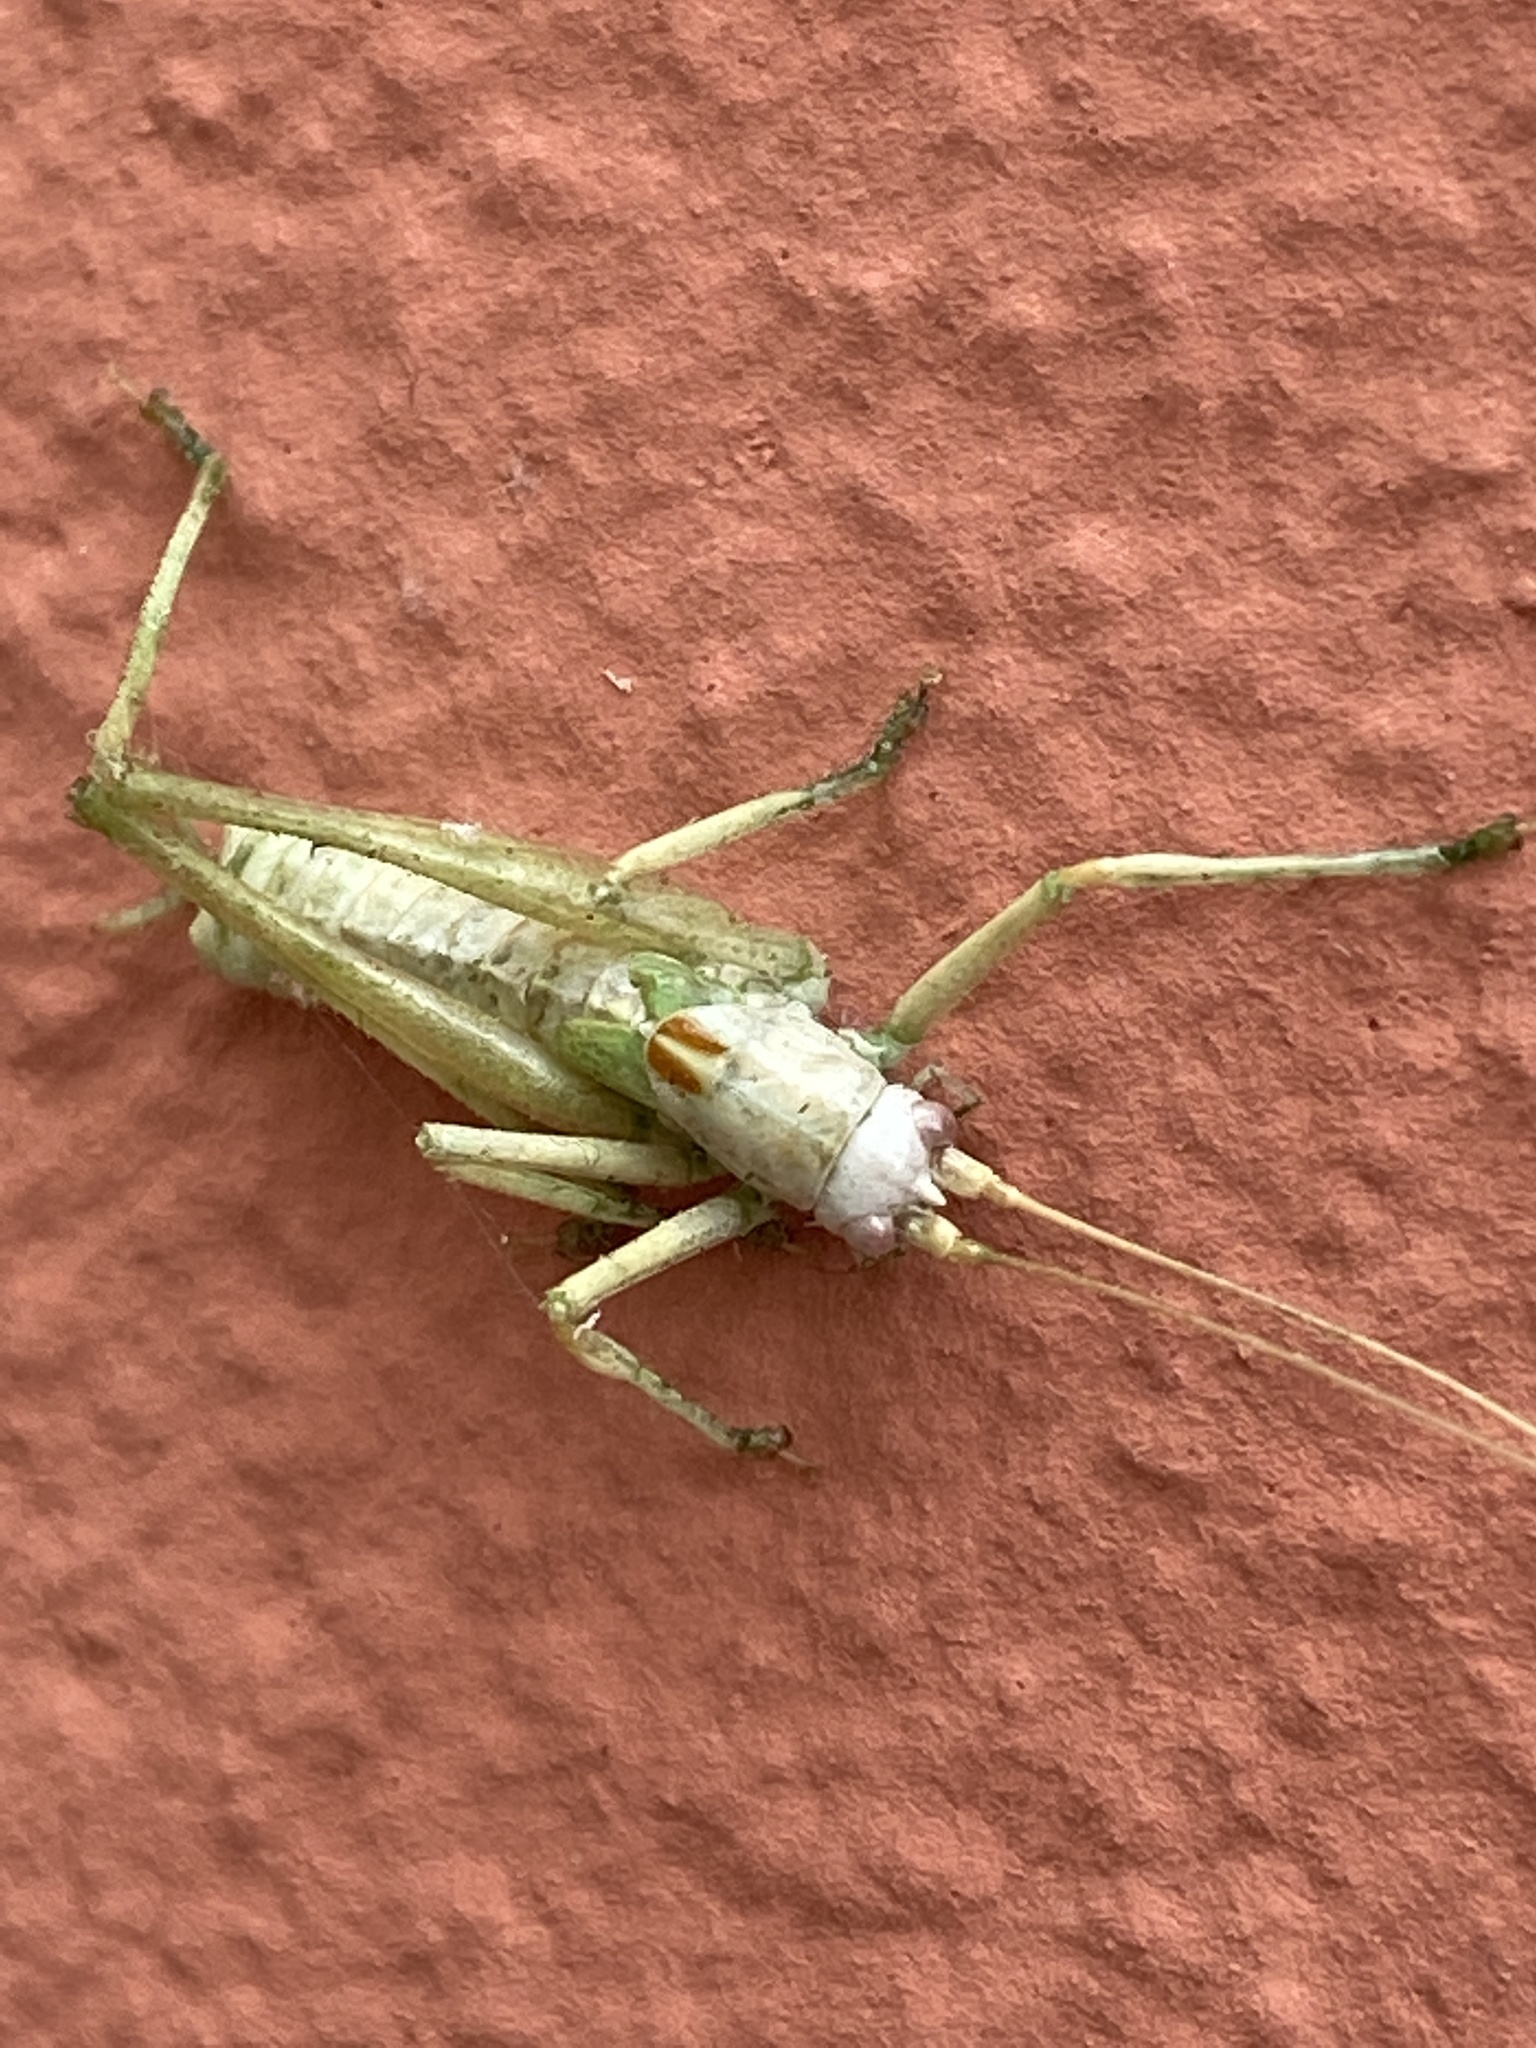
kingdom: Animalia
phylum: Arthropoda
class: Insecta
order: Orthoptera
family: Tettigoniidae
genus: Meconema
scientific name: Meconema meridionale
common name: Southern oak bush-cricket
